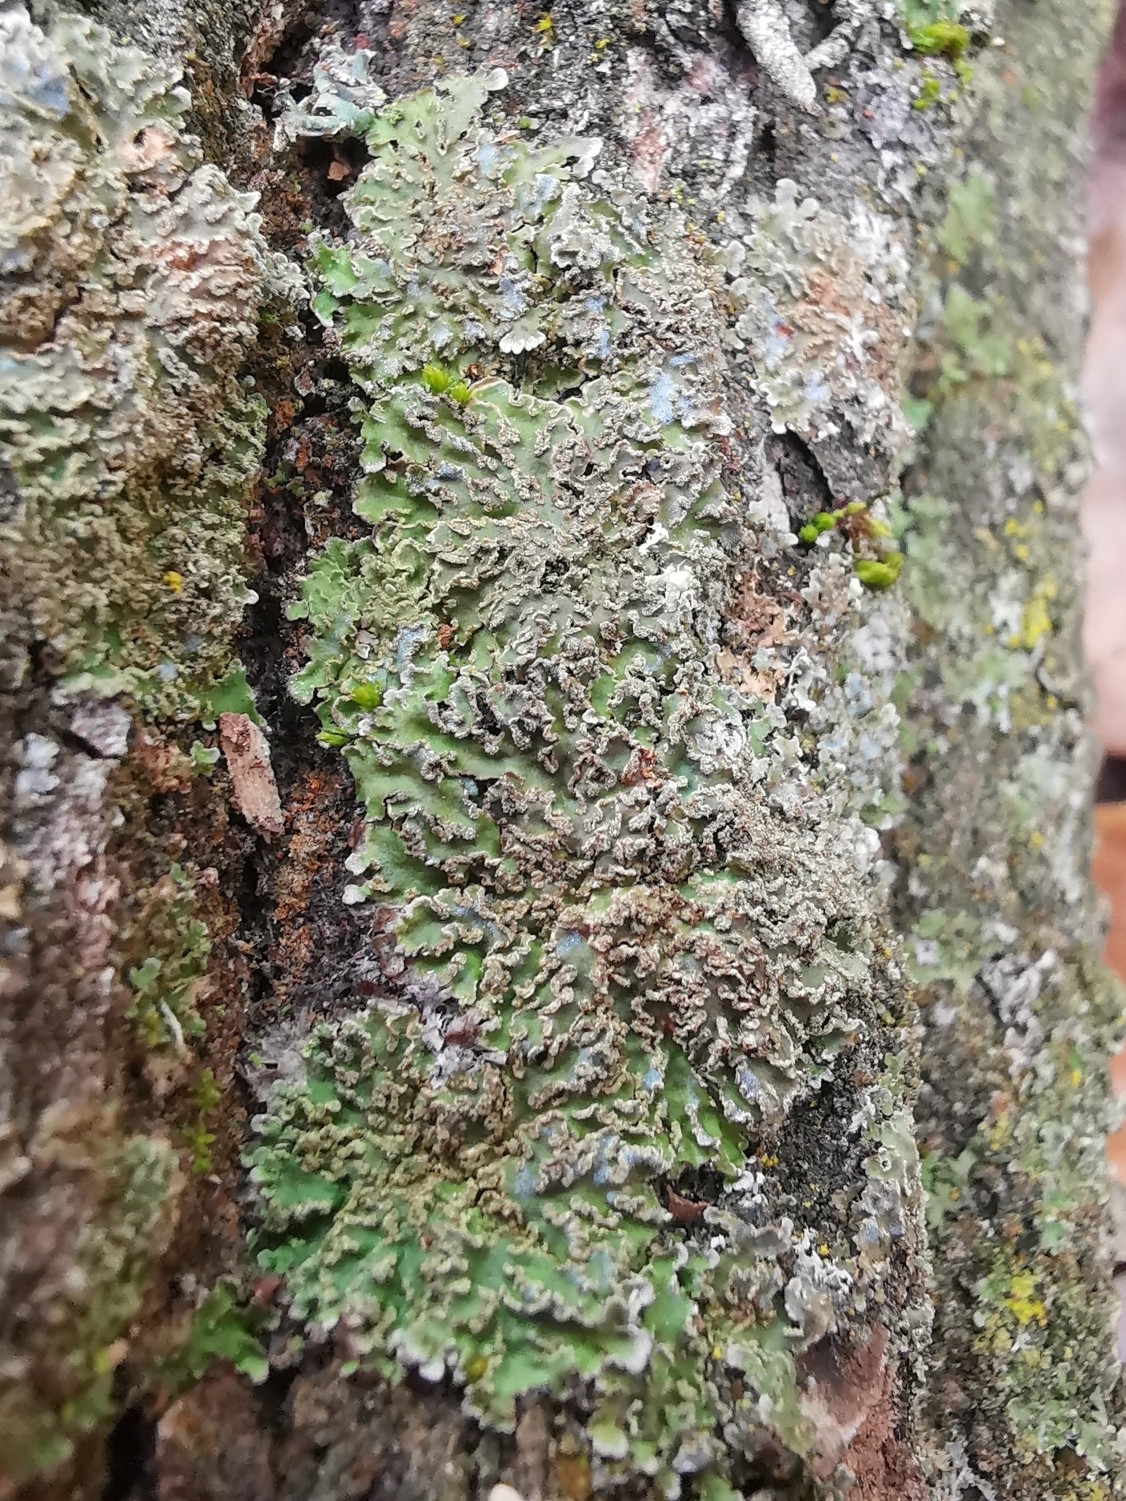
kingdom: Fungi
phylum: Ascomycota
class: Lecanoromycetes
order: Caliciales
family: Physciaceae
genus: Poeltonia
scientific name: Poeltonia grisea
